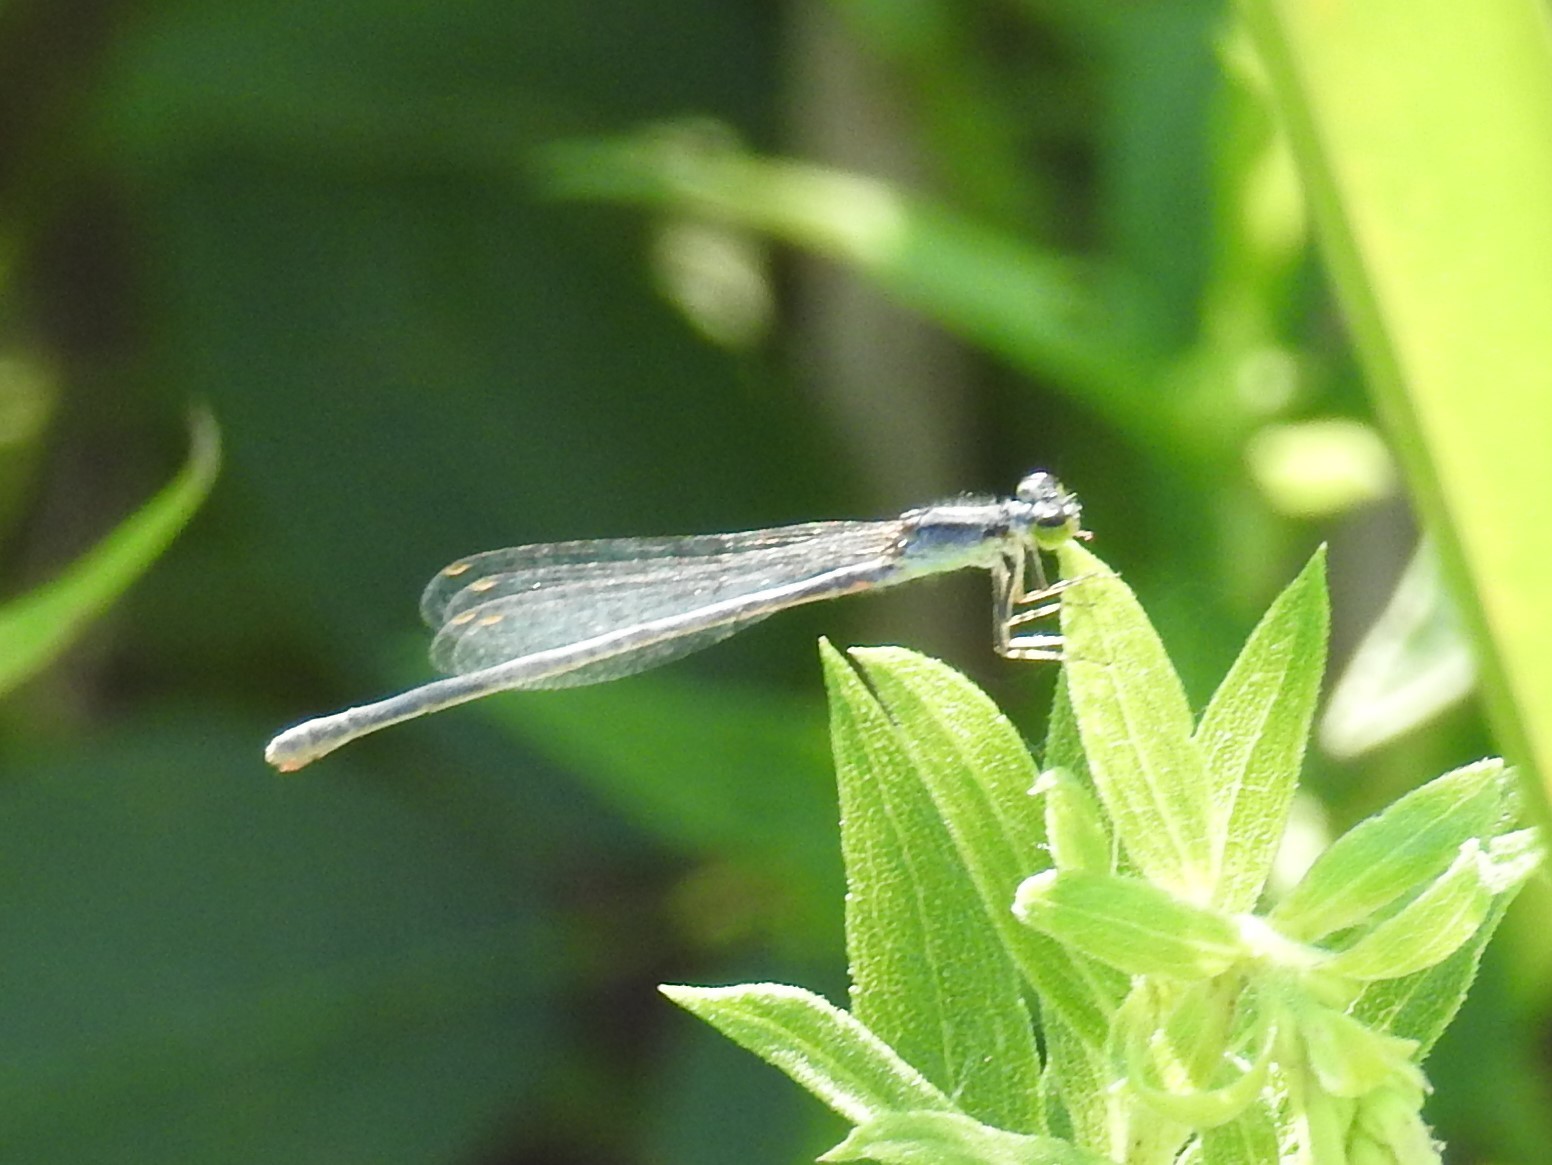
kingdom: Animalia
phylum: Arthropoda
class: Insecta
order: Odonata
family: Coenagrionidae
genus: Ischnura
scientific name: Ischnura verticalis
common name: Eastern forktail
